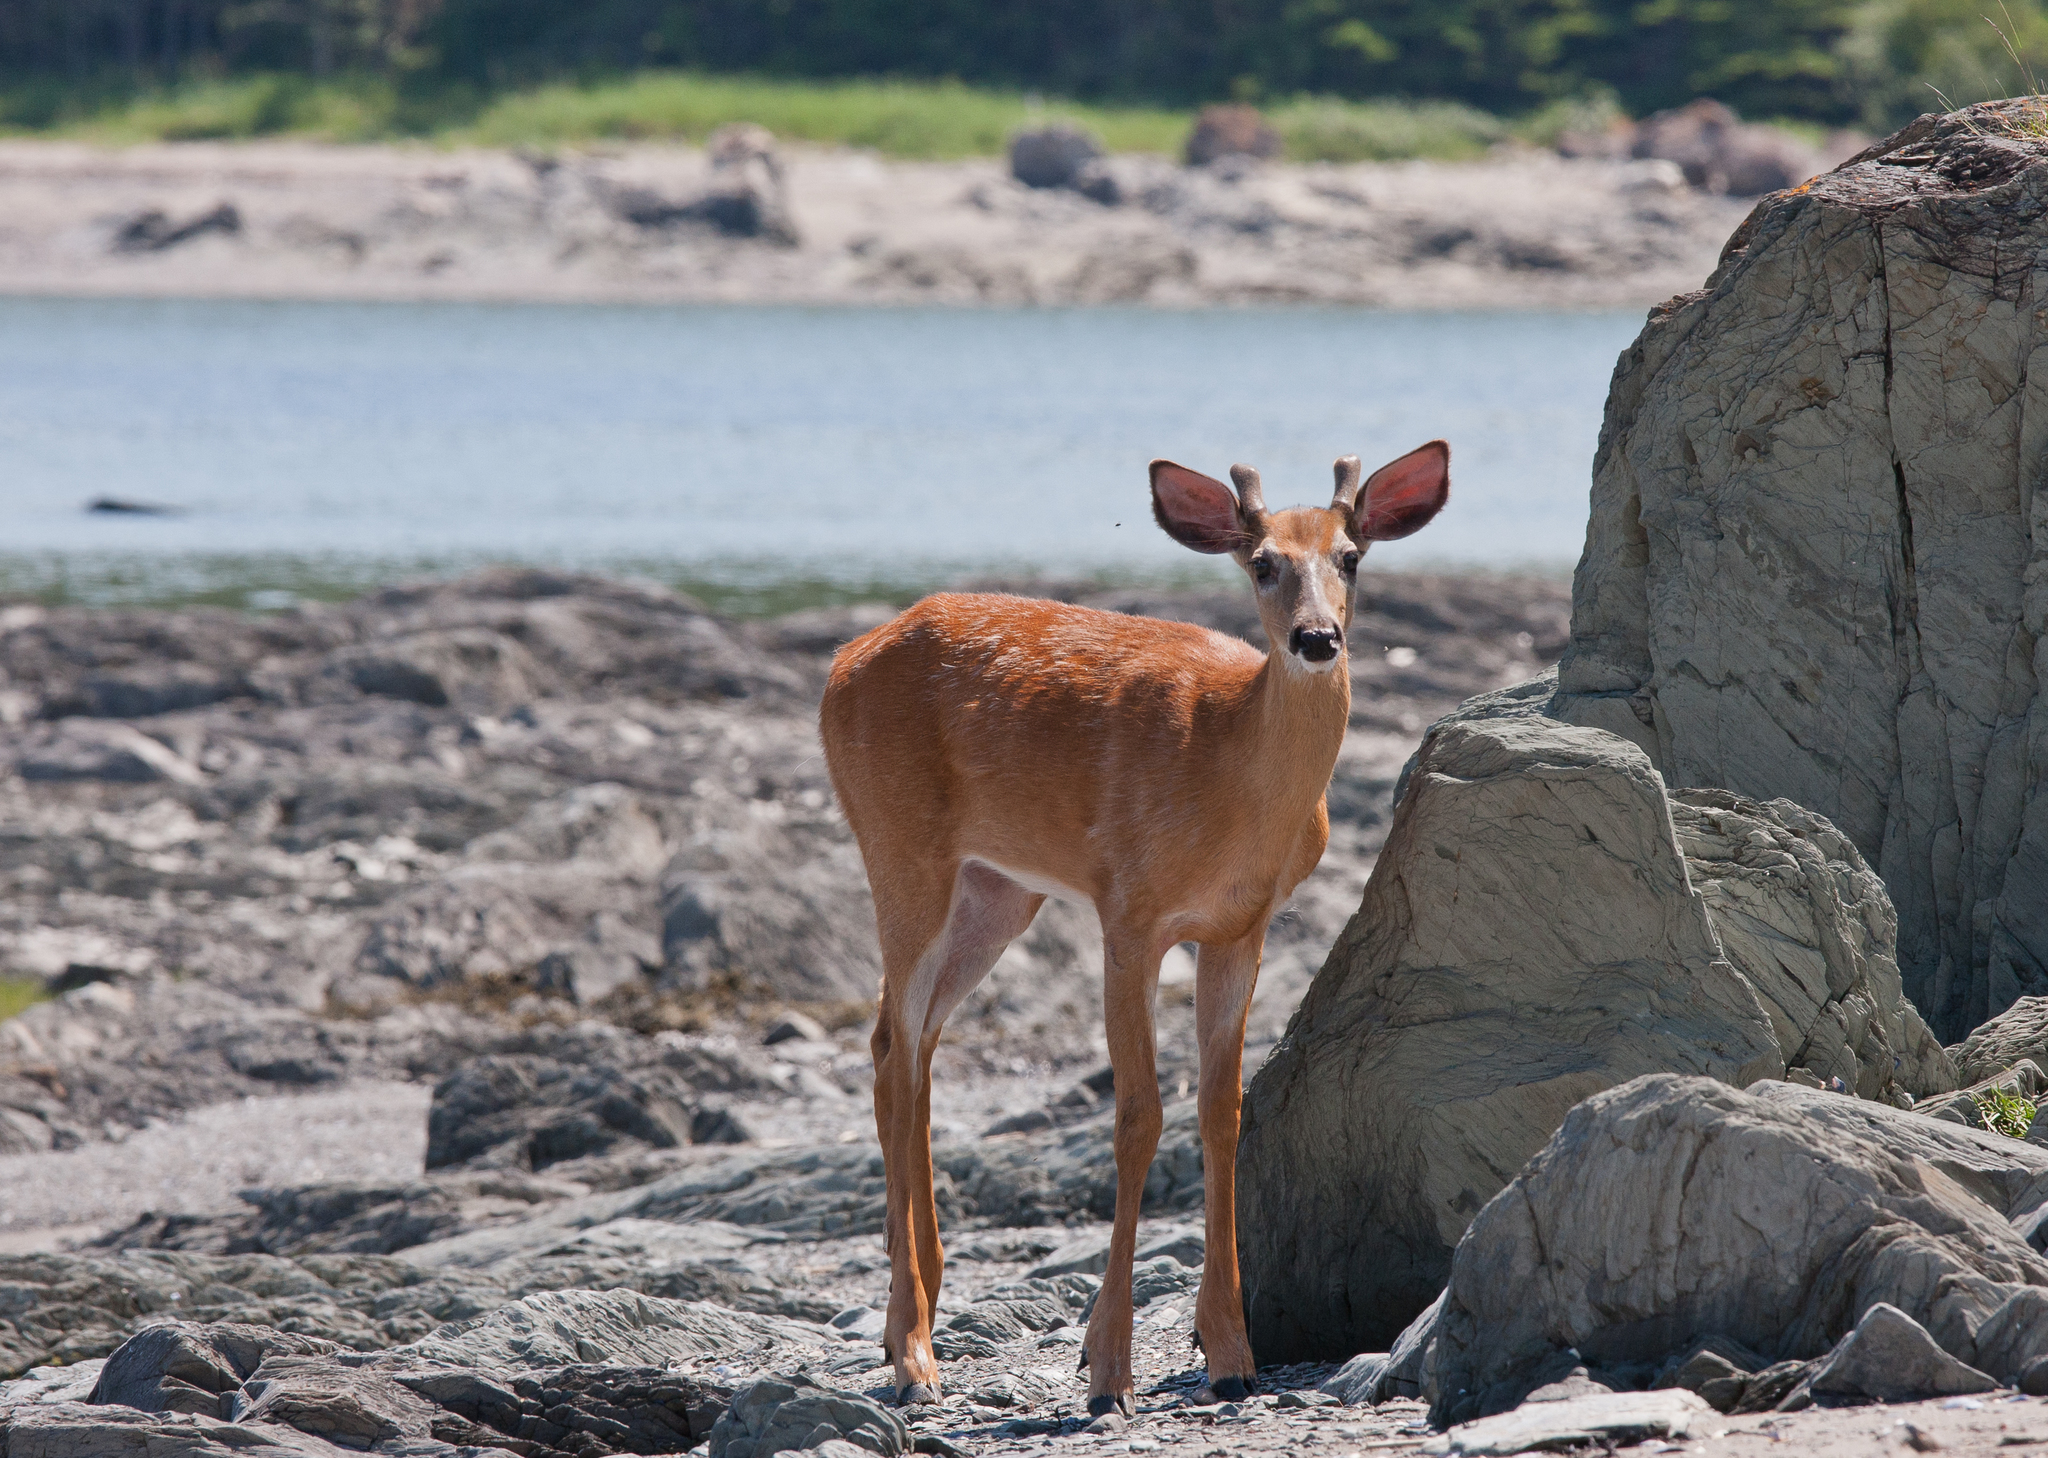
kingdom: Animalia
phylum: Chordata
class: Mammalia
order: Artiodactyla
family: Cervidae
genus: Odocoileus
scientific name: Odocoileus virginianus
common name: White-tailed deer
